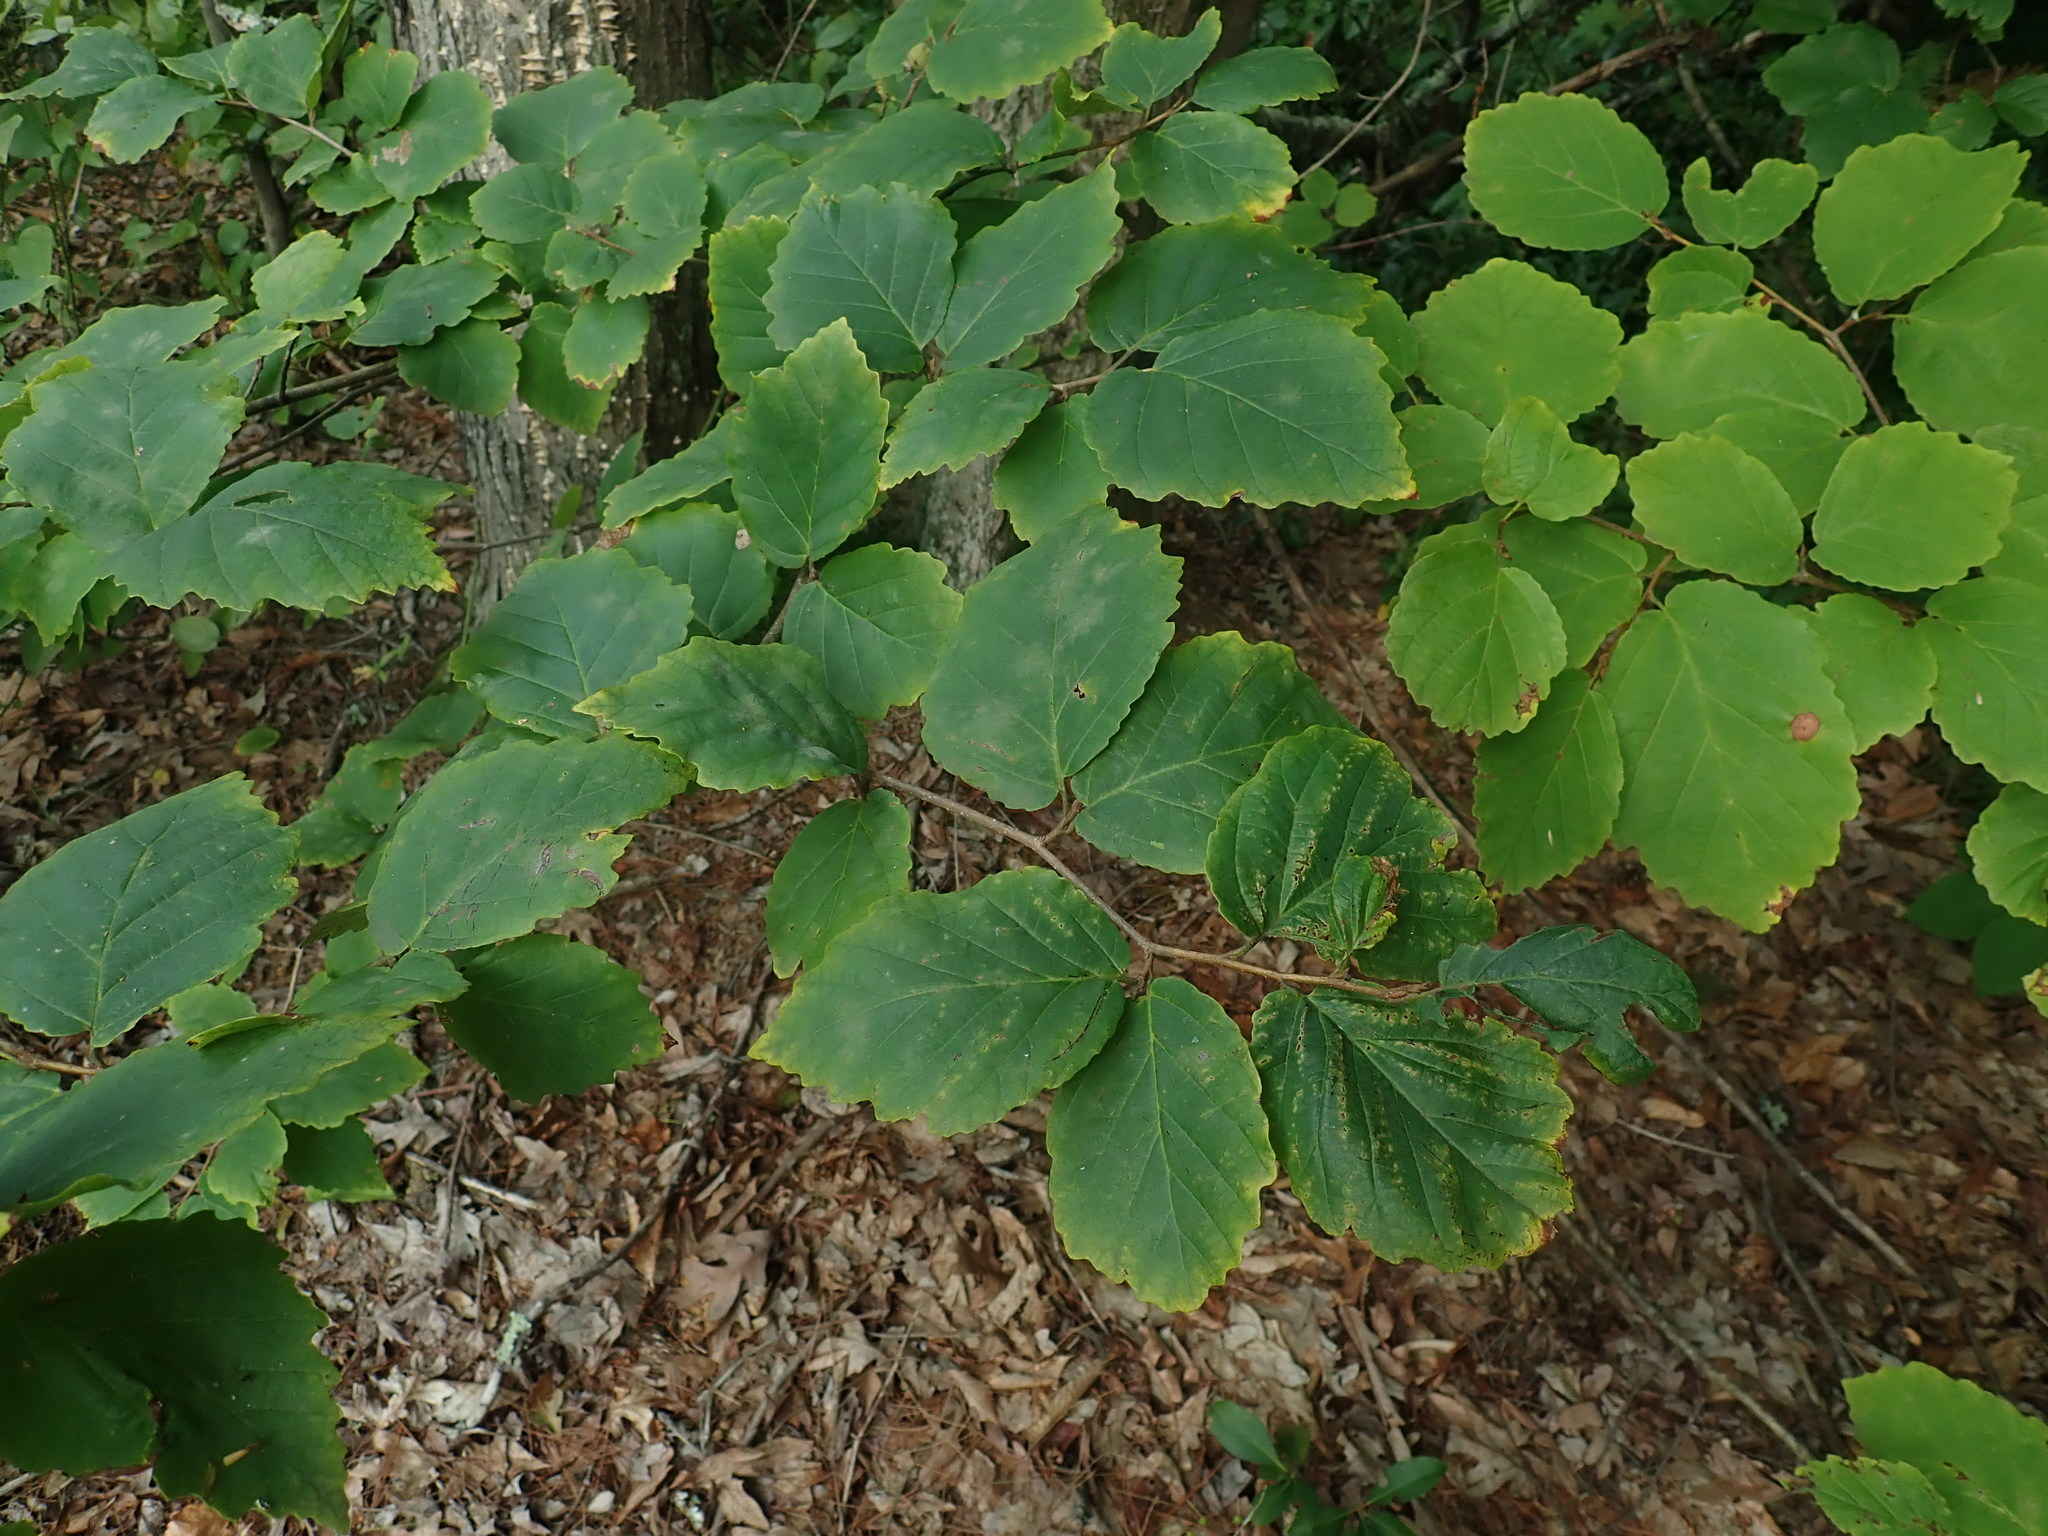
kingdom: Plantae
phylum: Tracheophyta
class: Magnoliopsida
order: Saxifragales
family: Hamamelidaceae
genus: Hamamelis
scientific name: Hamamelis virginiana
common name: Witch-hazel
